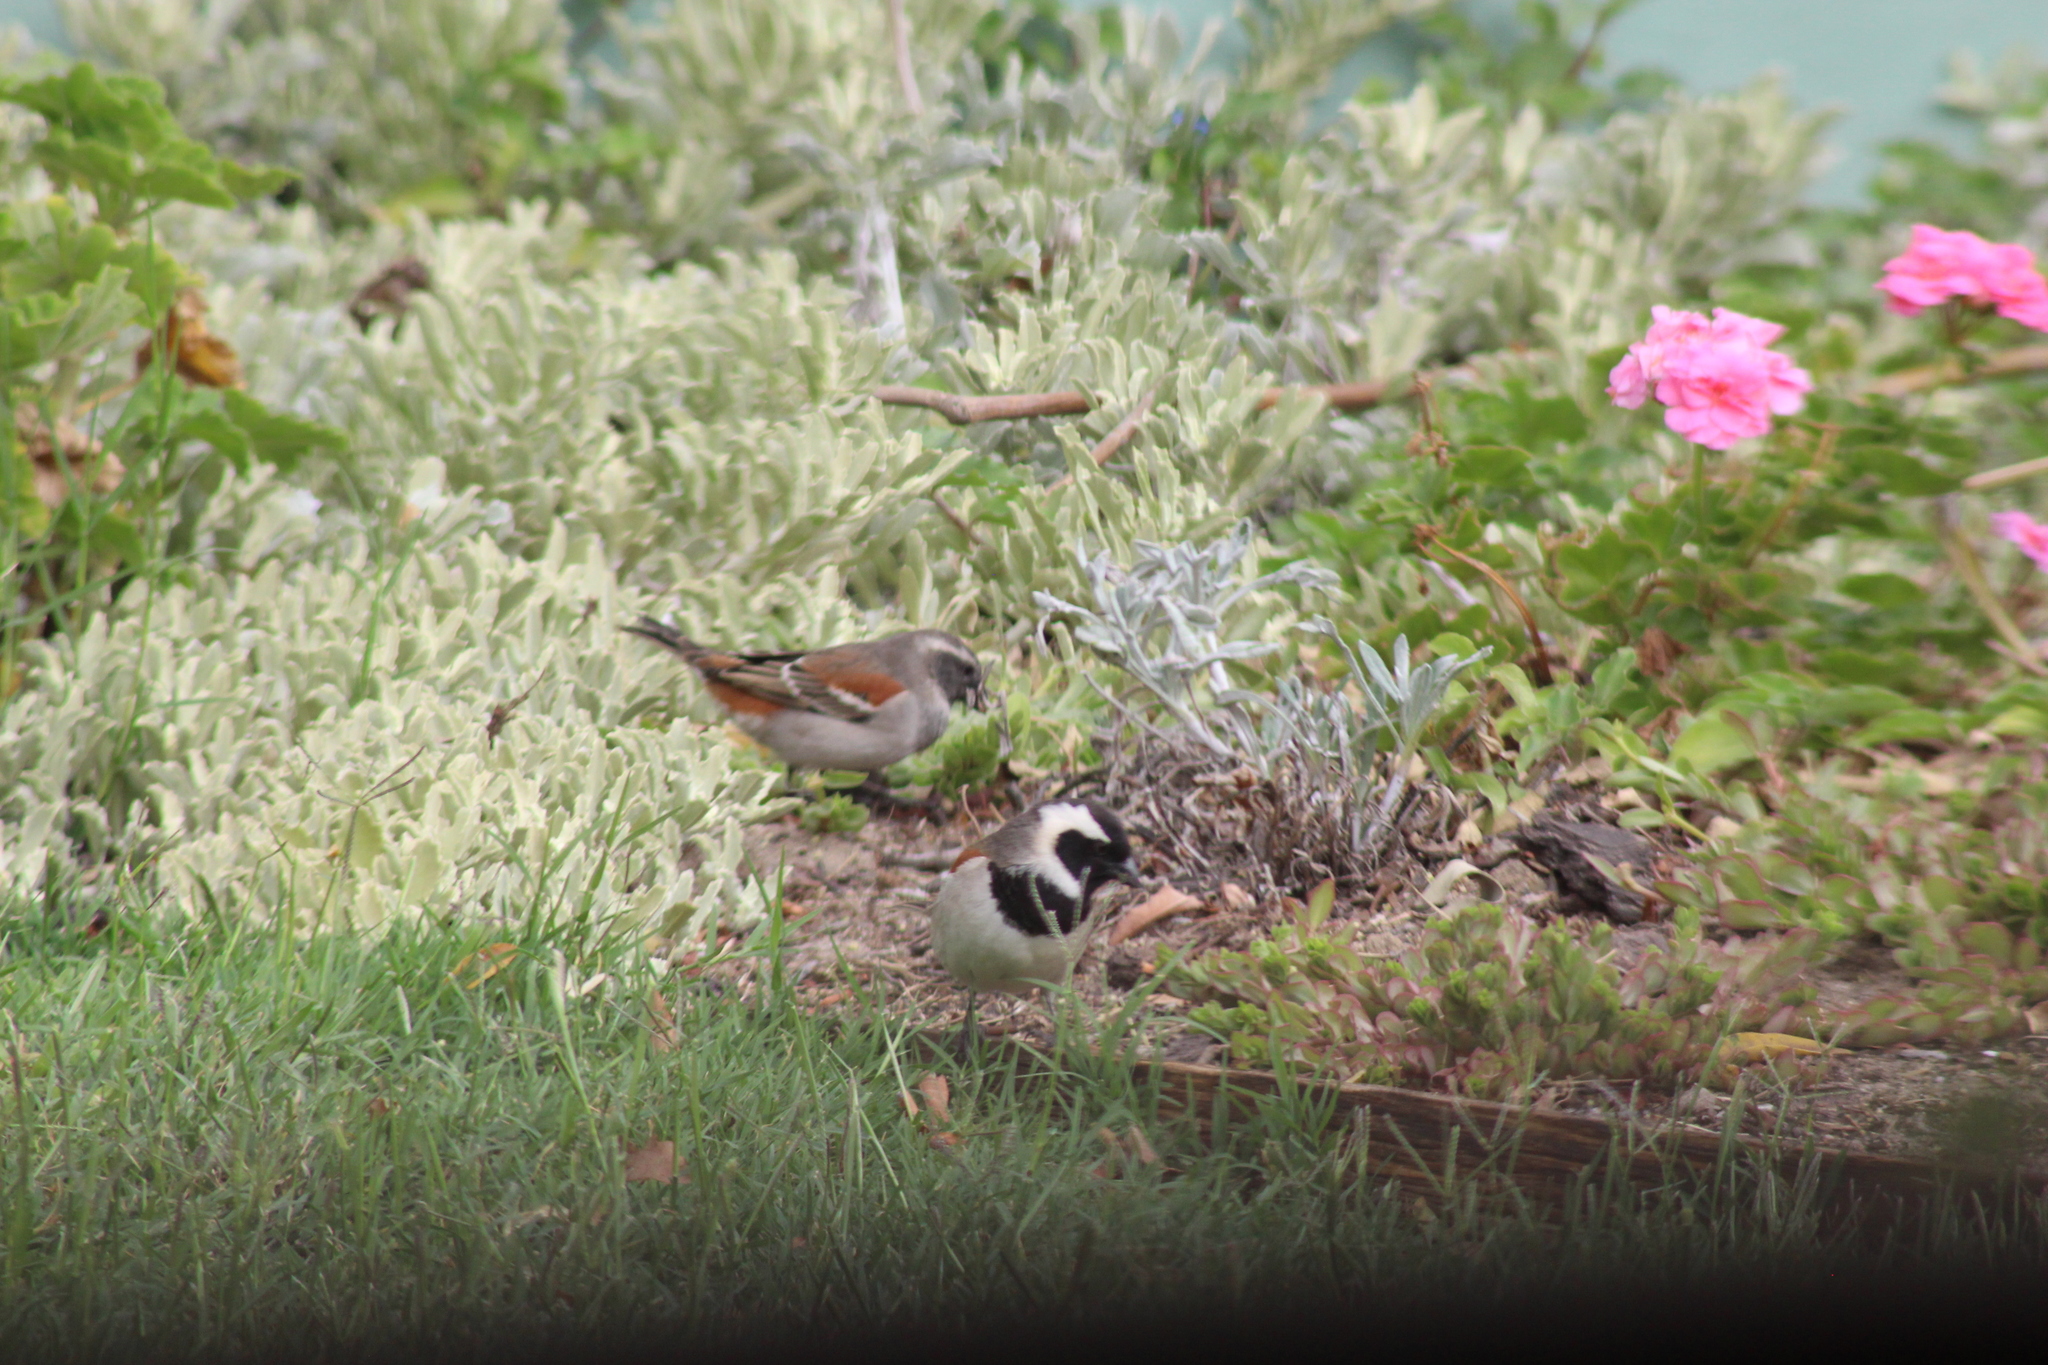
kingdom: Animalia
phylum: Chordata
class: Aves
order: Passeriformes
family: Passeridae
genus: Passer
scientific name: Passer melanurus
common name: Cape sparrow
